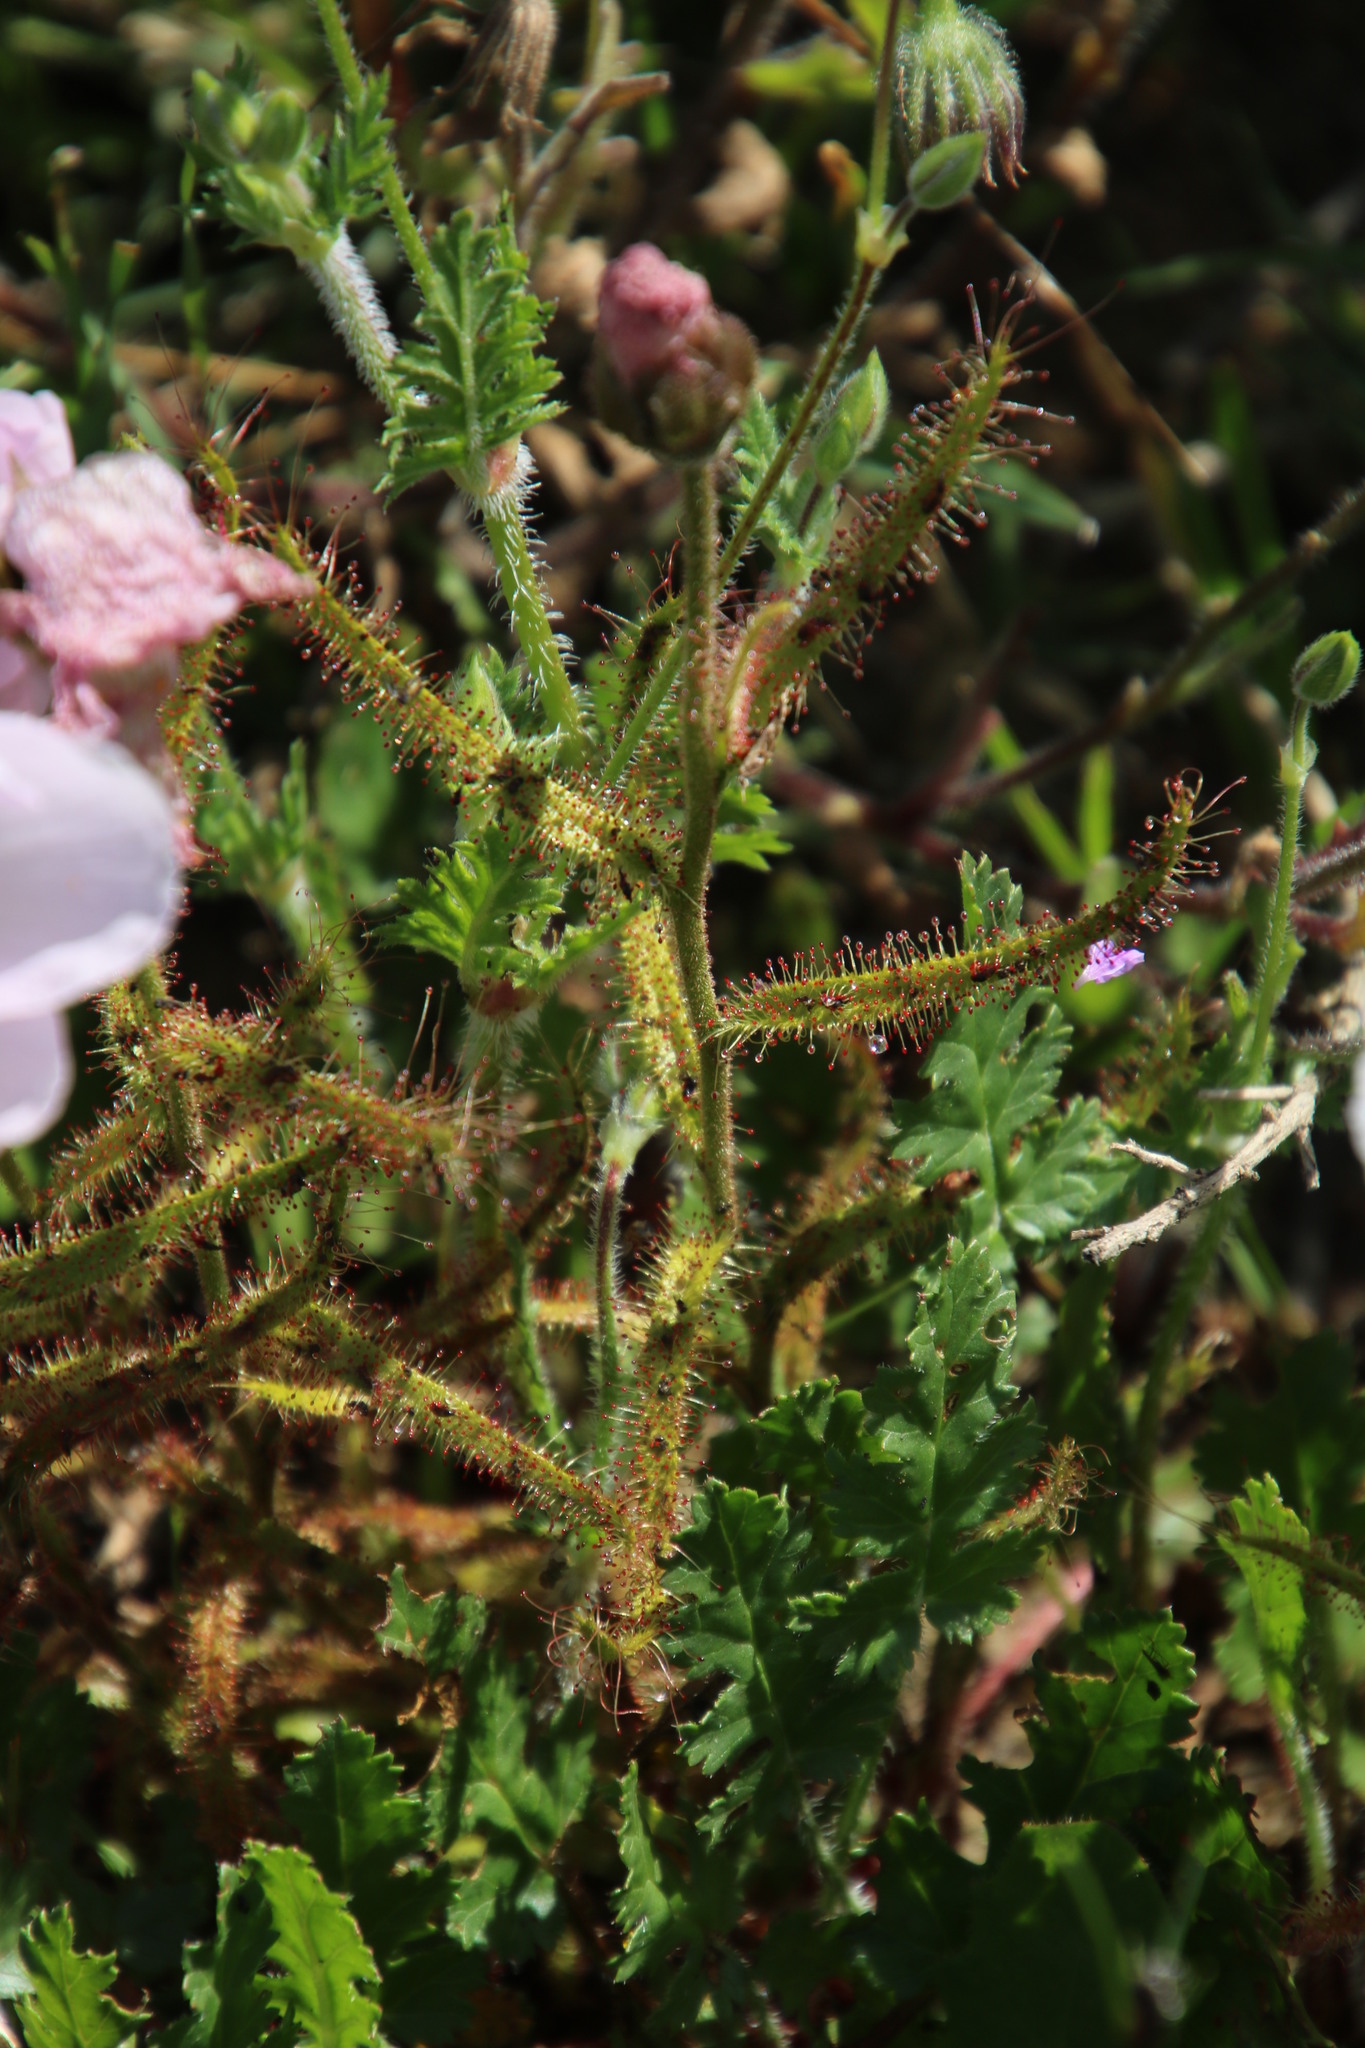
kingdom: Plantae
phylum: Tracheophyta
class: Magnoliopsida
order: Caryophyllales
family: Droseraceae
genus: Drosera
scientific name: Drosera cistiflora
